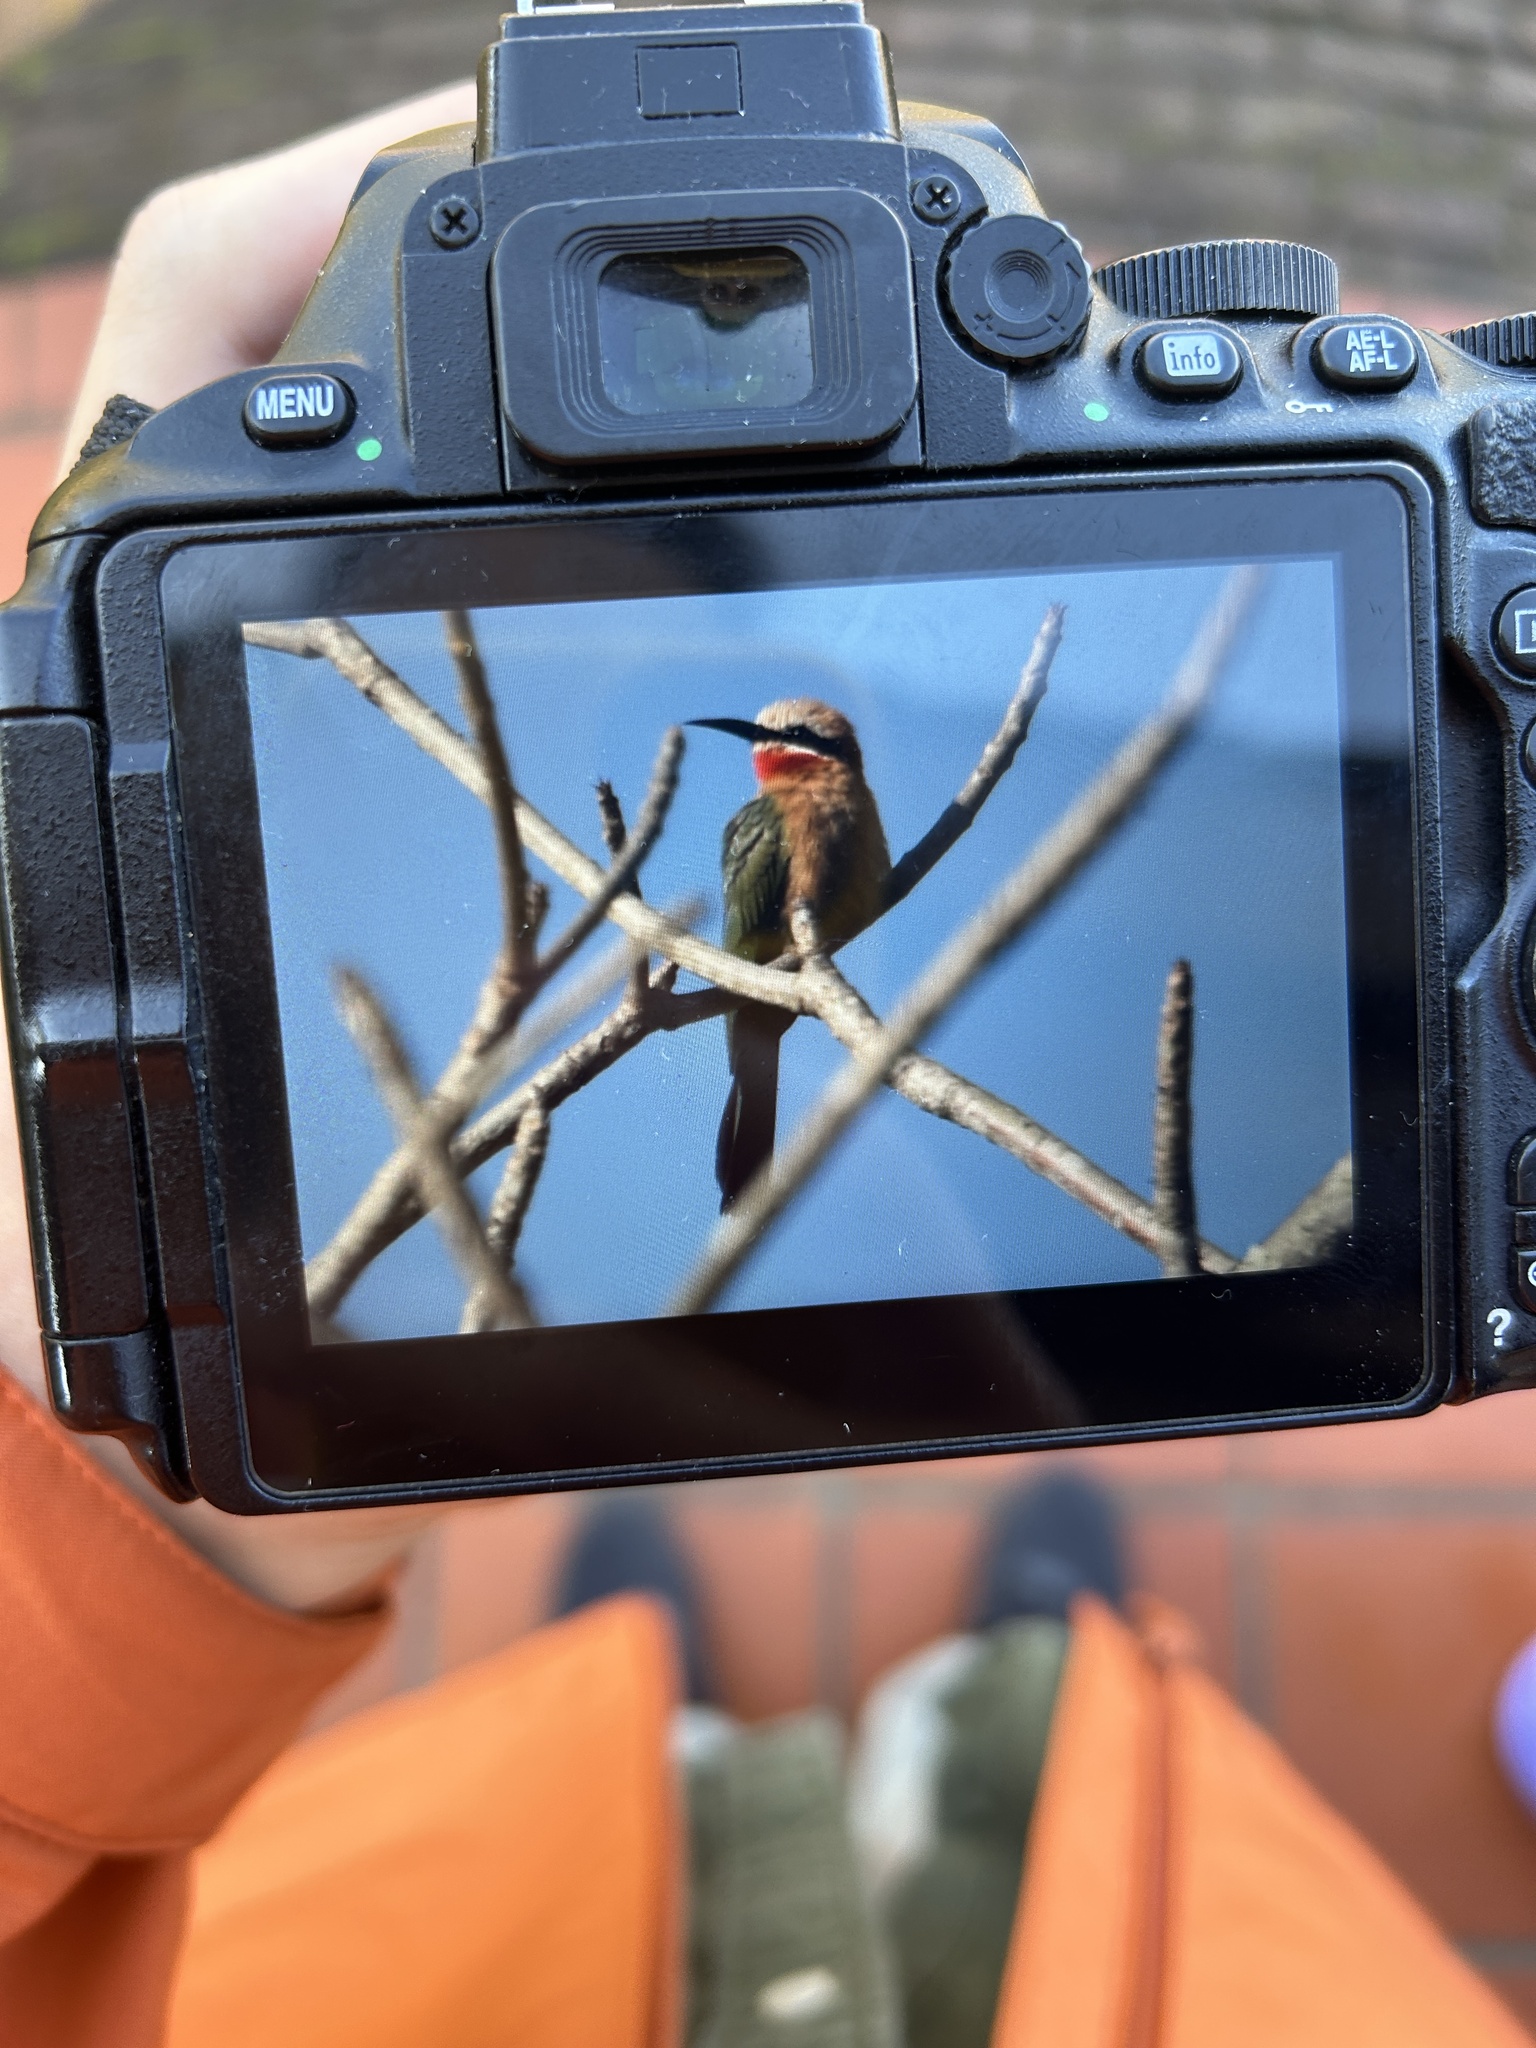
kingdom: Animalia
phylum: Chordata
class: Aves
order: Coraciiformes
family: Meropidae
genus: Merops
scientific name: Merops bullockoides
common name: White-fronted bee-eater
